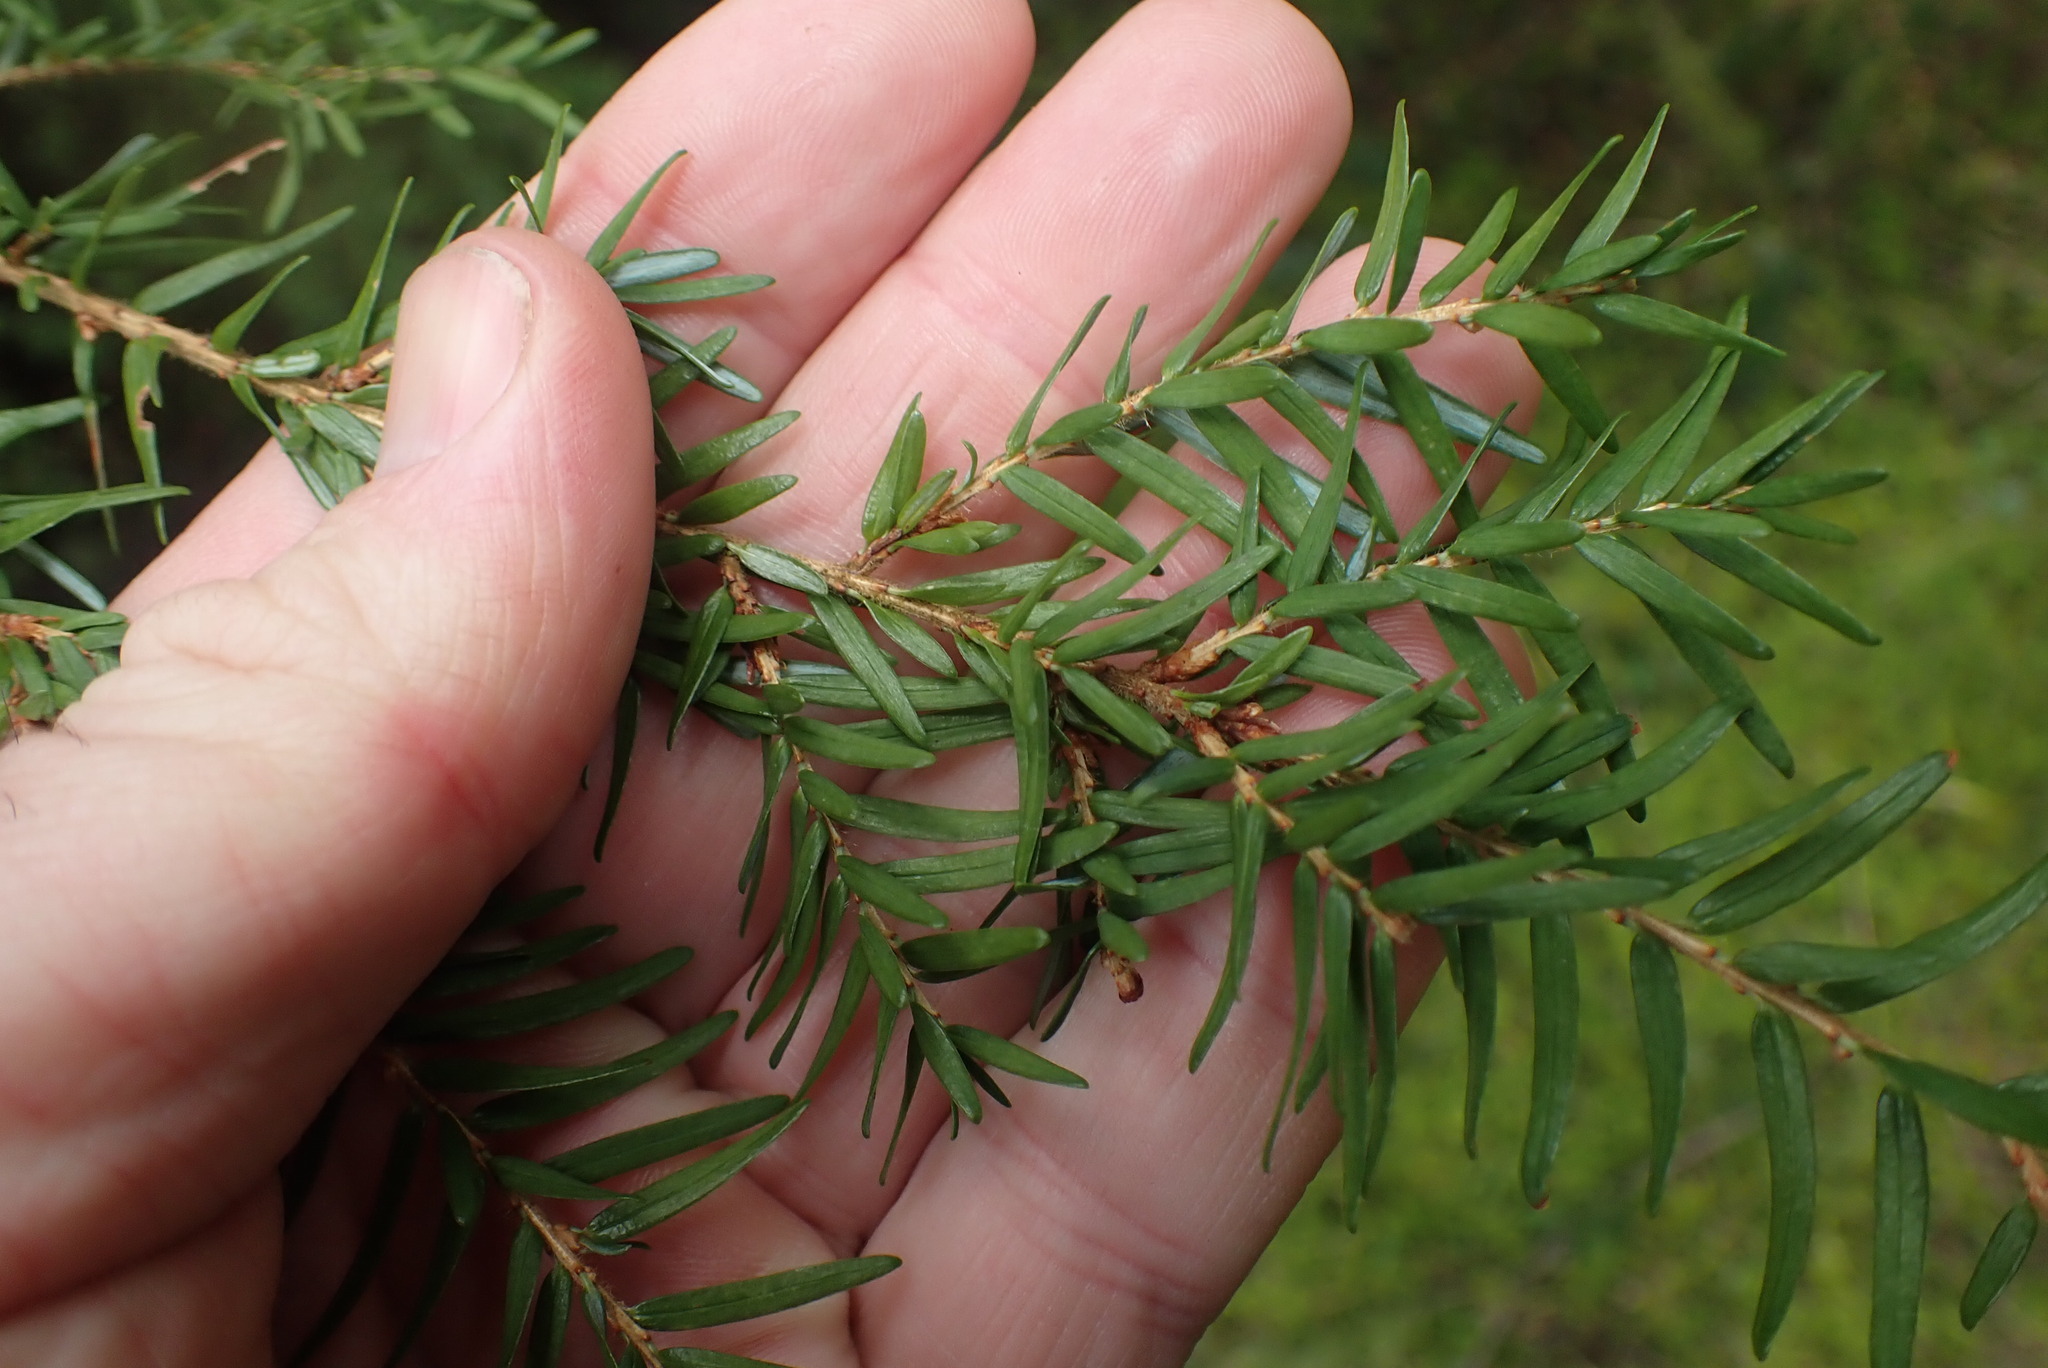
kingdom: Plantae
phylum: Tracheophyta
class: Pinopsida
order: Pinales
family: Pinaceae
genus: Tsuga
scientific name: Tsuga heterophylla
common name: Western hemlock
